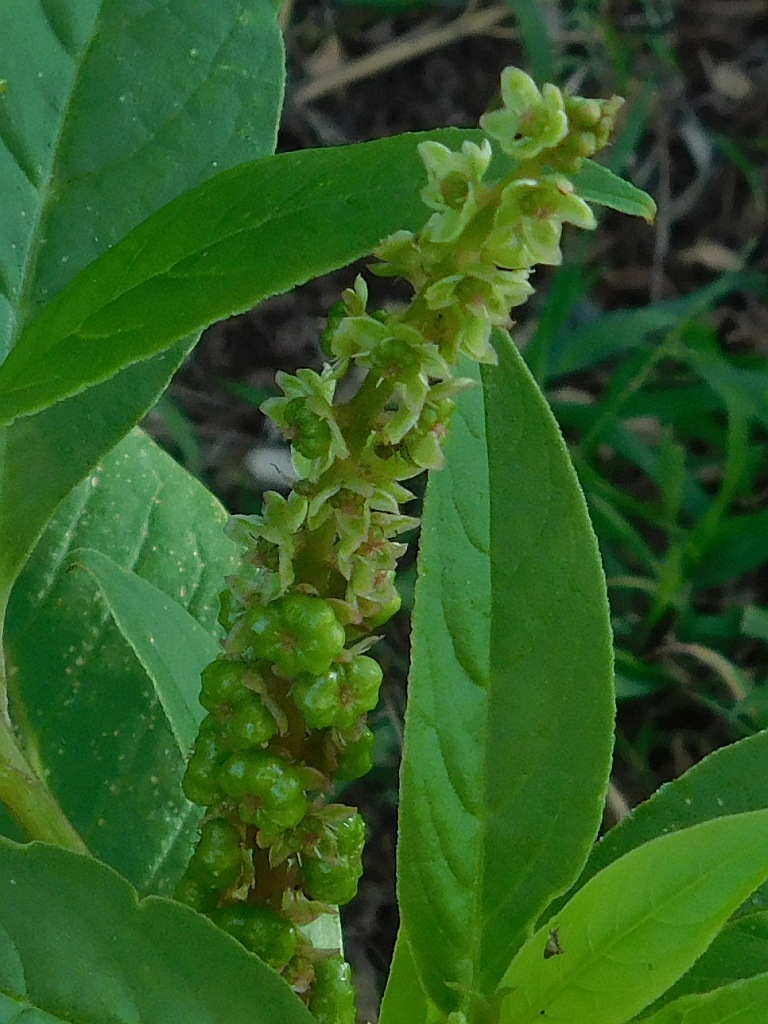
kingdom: Plantae
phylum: Tracheophyta
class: Magnoliopsida
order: Caryophyllales
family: Phytolaccaceae
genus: Phytolacca
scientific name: Phytolacca icosandra
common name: Button pokeweed
